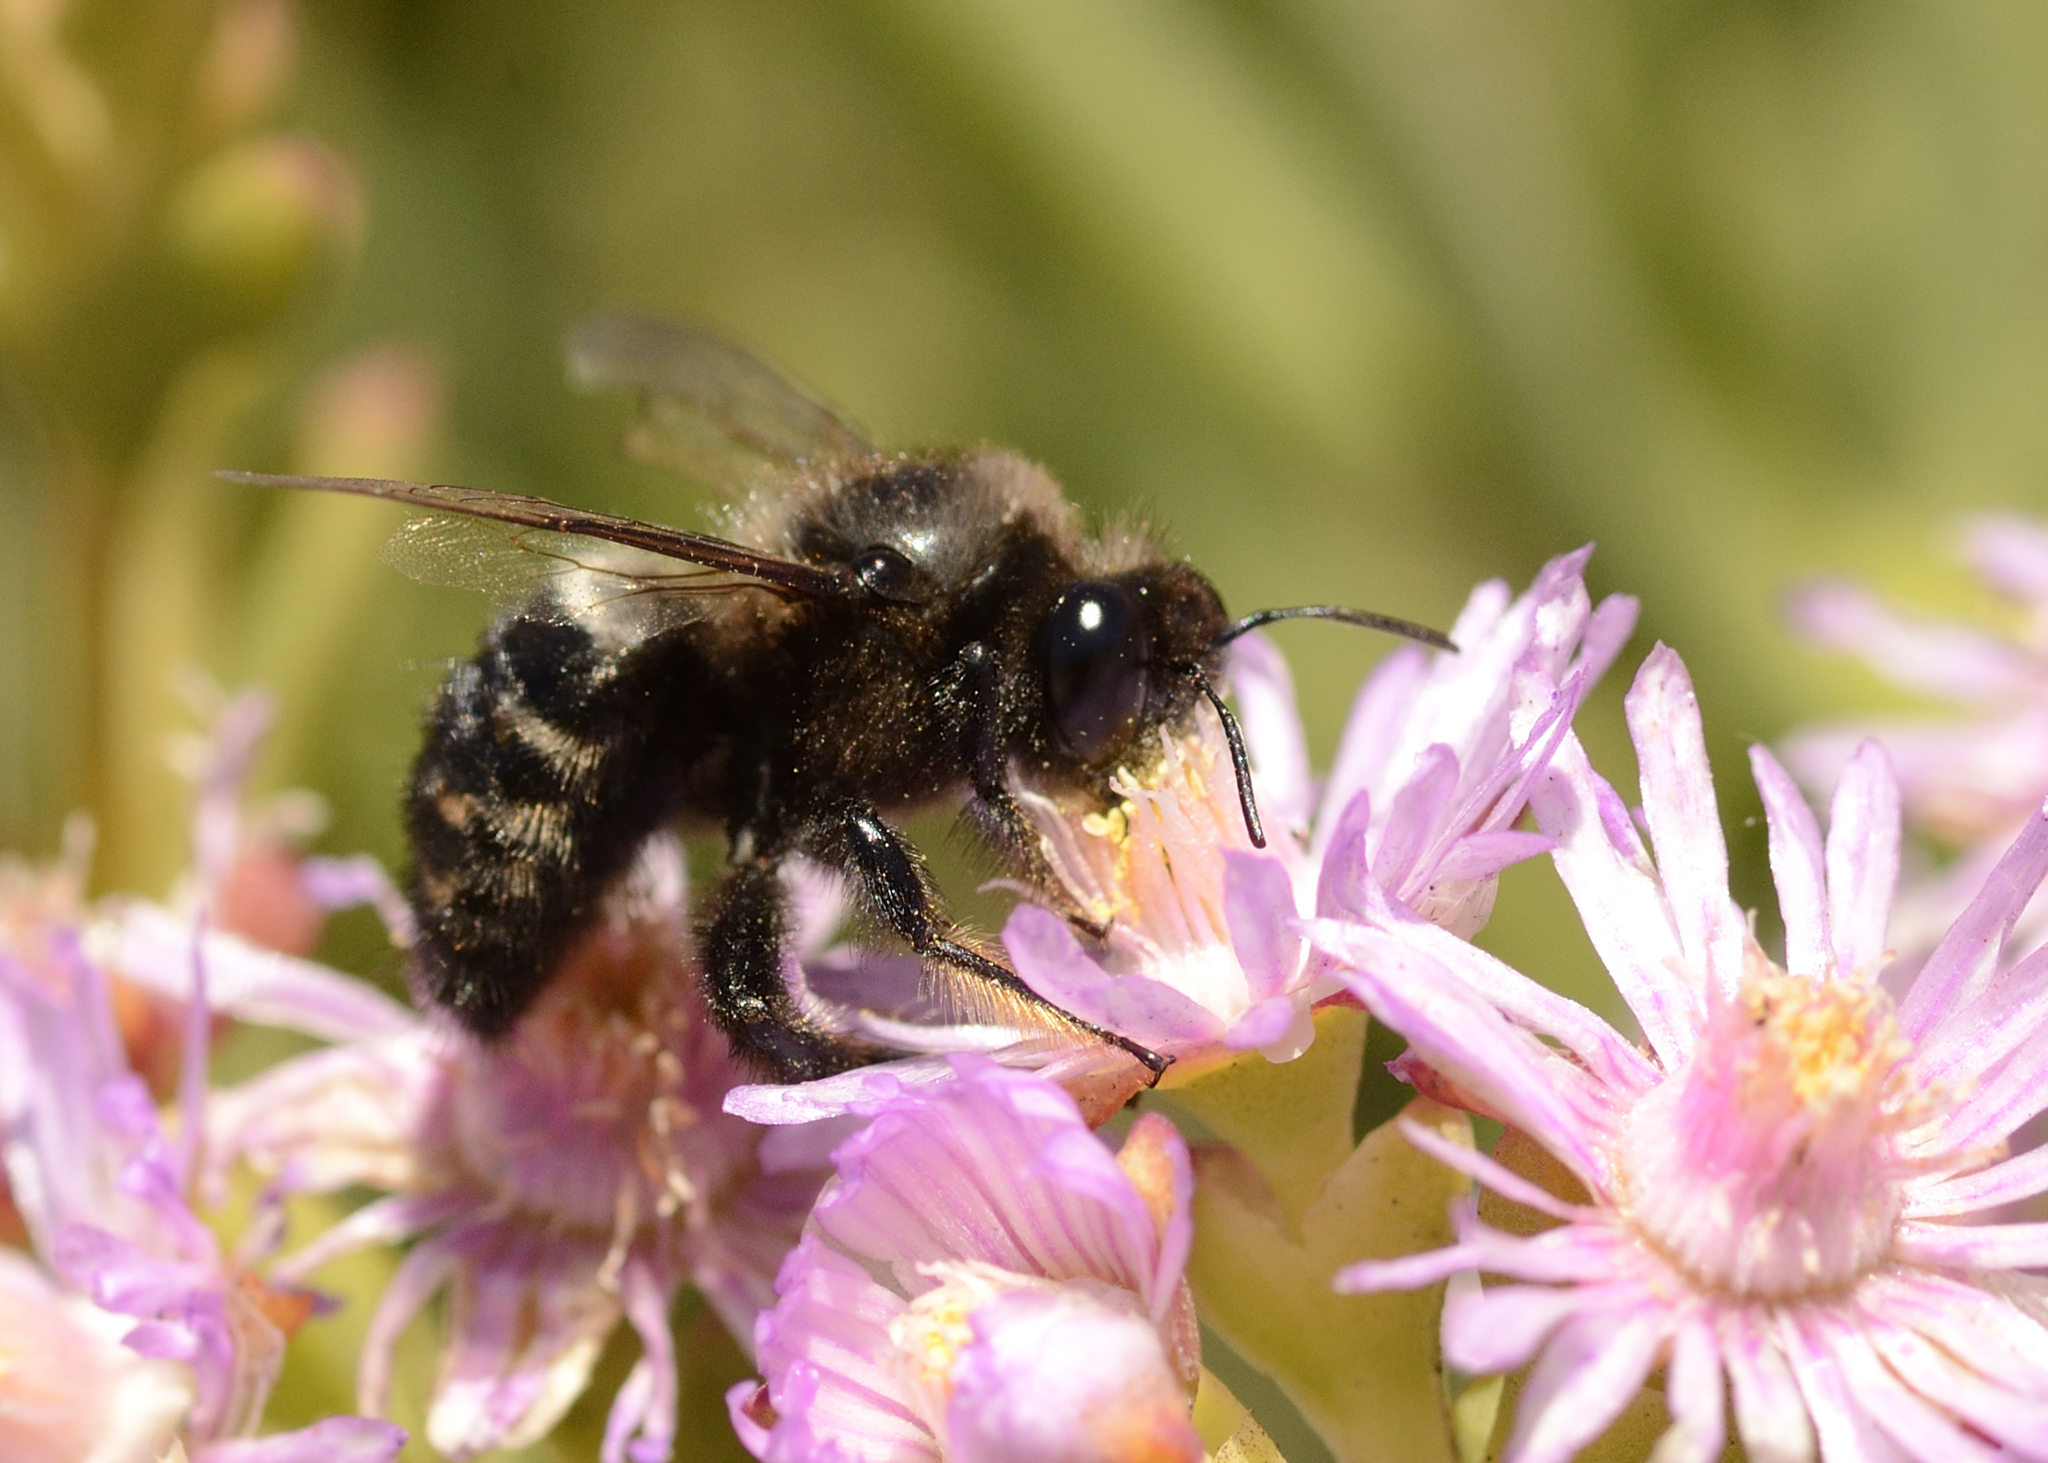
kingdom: Animalia
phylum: Arthropoda
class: Insecta
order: Hymenoptera
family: Apidae
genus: Xylocopa
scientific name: Xylocopa albifrons
